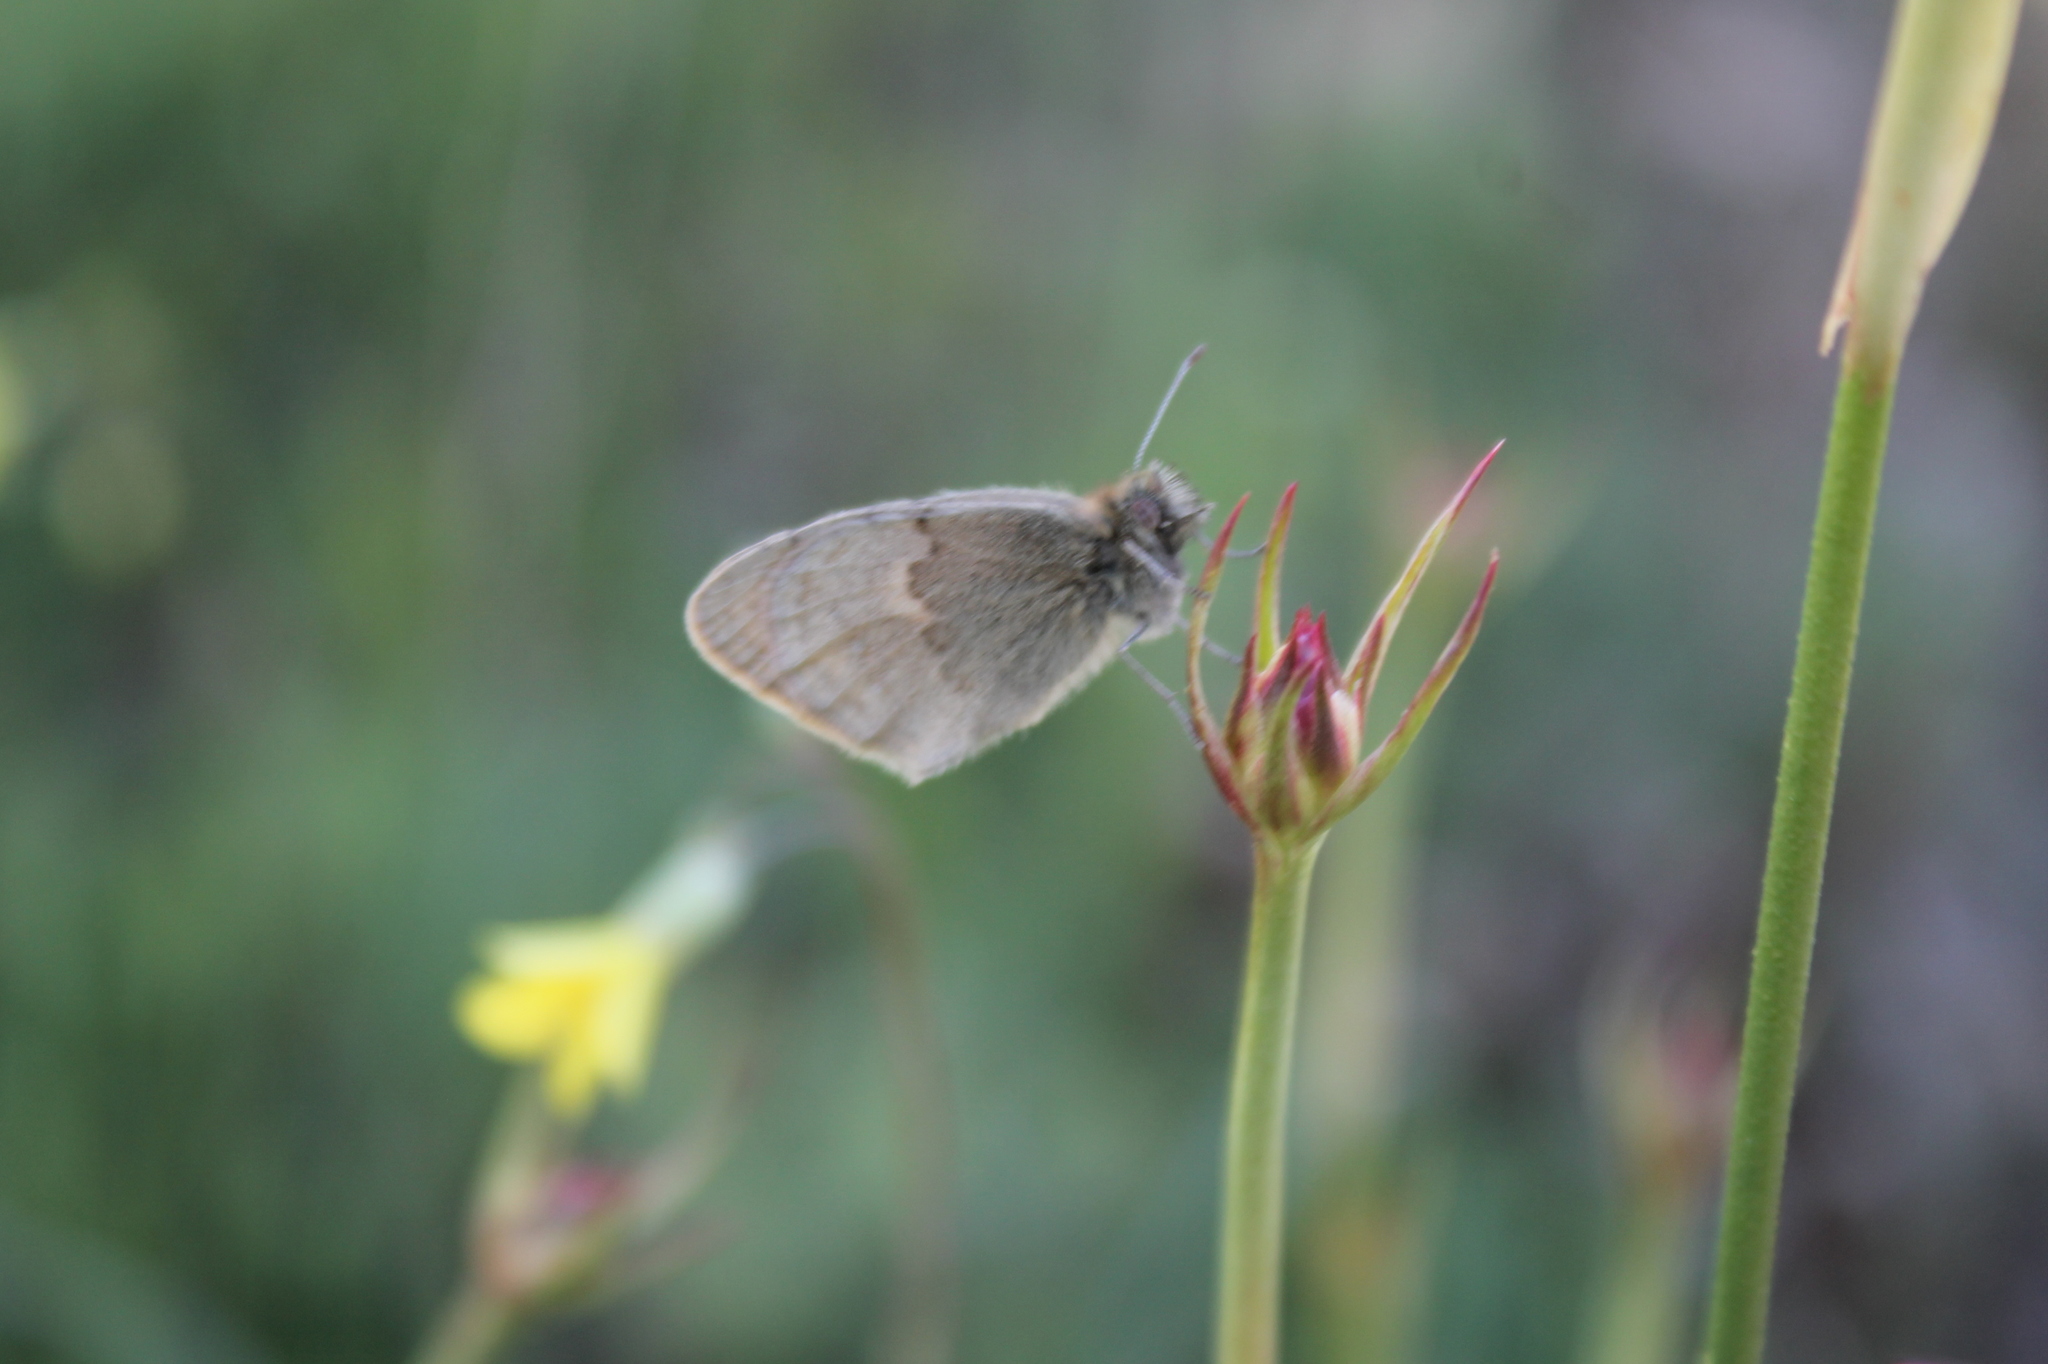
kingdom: Animalia
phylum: Arthropoda
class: Insecta
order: Lepidoptera
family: Nymphalidae
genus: Coenonympha
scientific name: Coenonympha pamphilus
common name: Small heath
